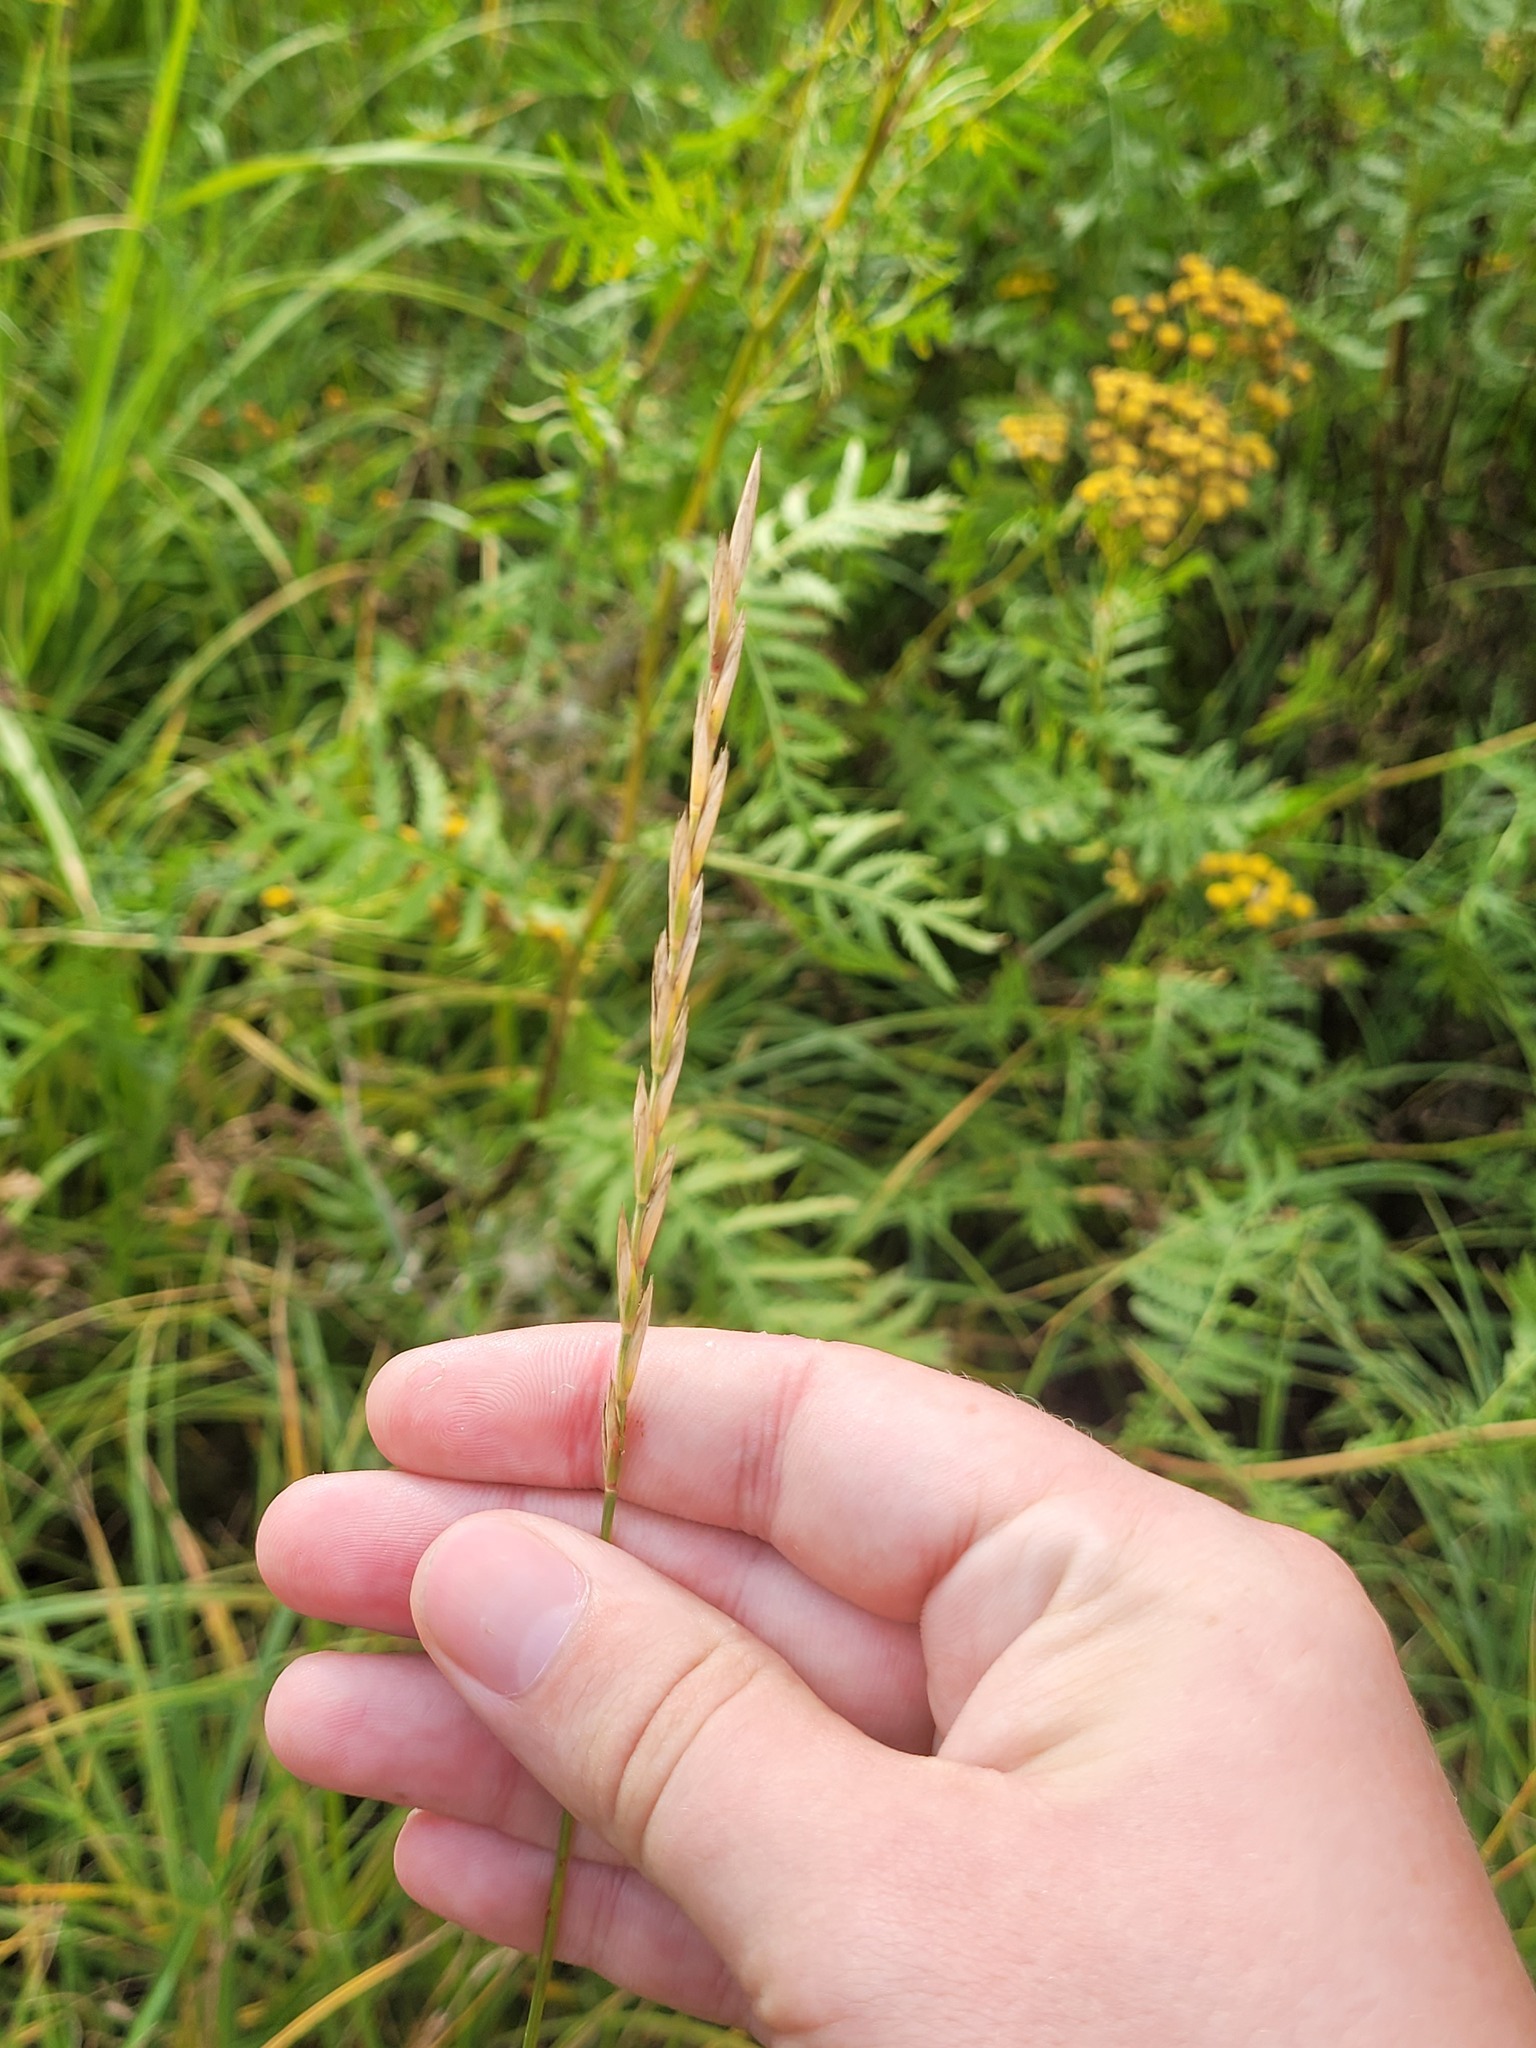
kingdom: Plantae
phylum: Tracheophyta
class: Liliopsida
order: Poales
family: Poaceae
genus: Elymus
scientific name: Elymus repens
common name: Quackgrass
